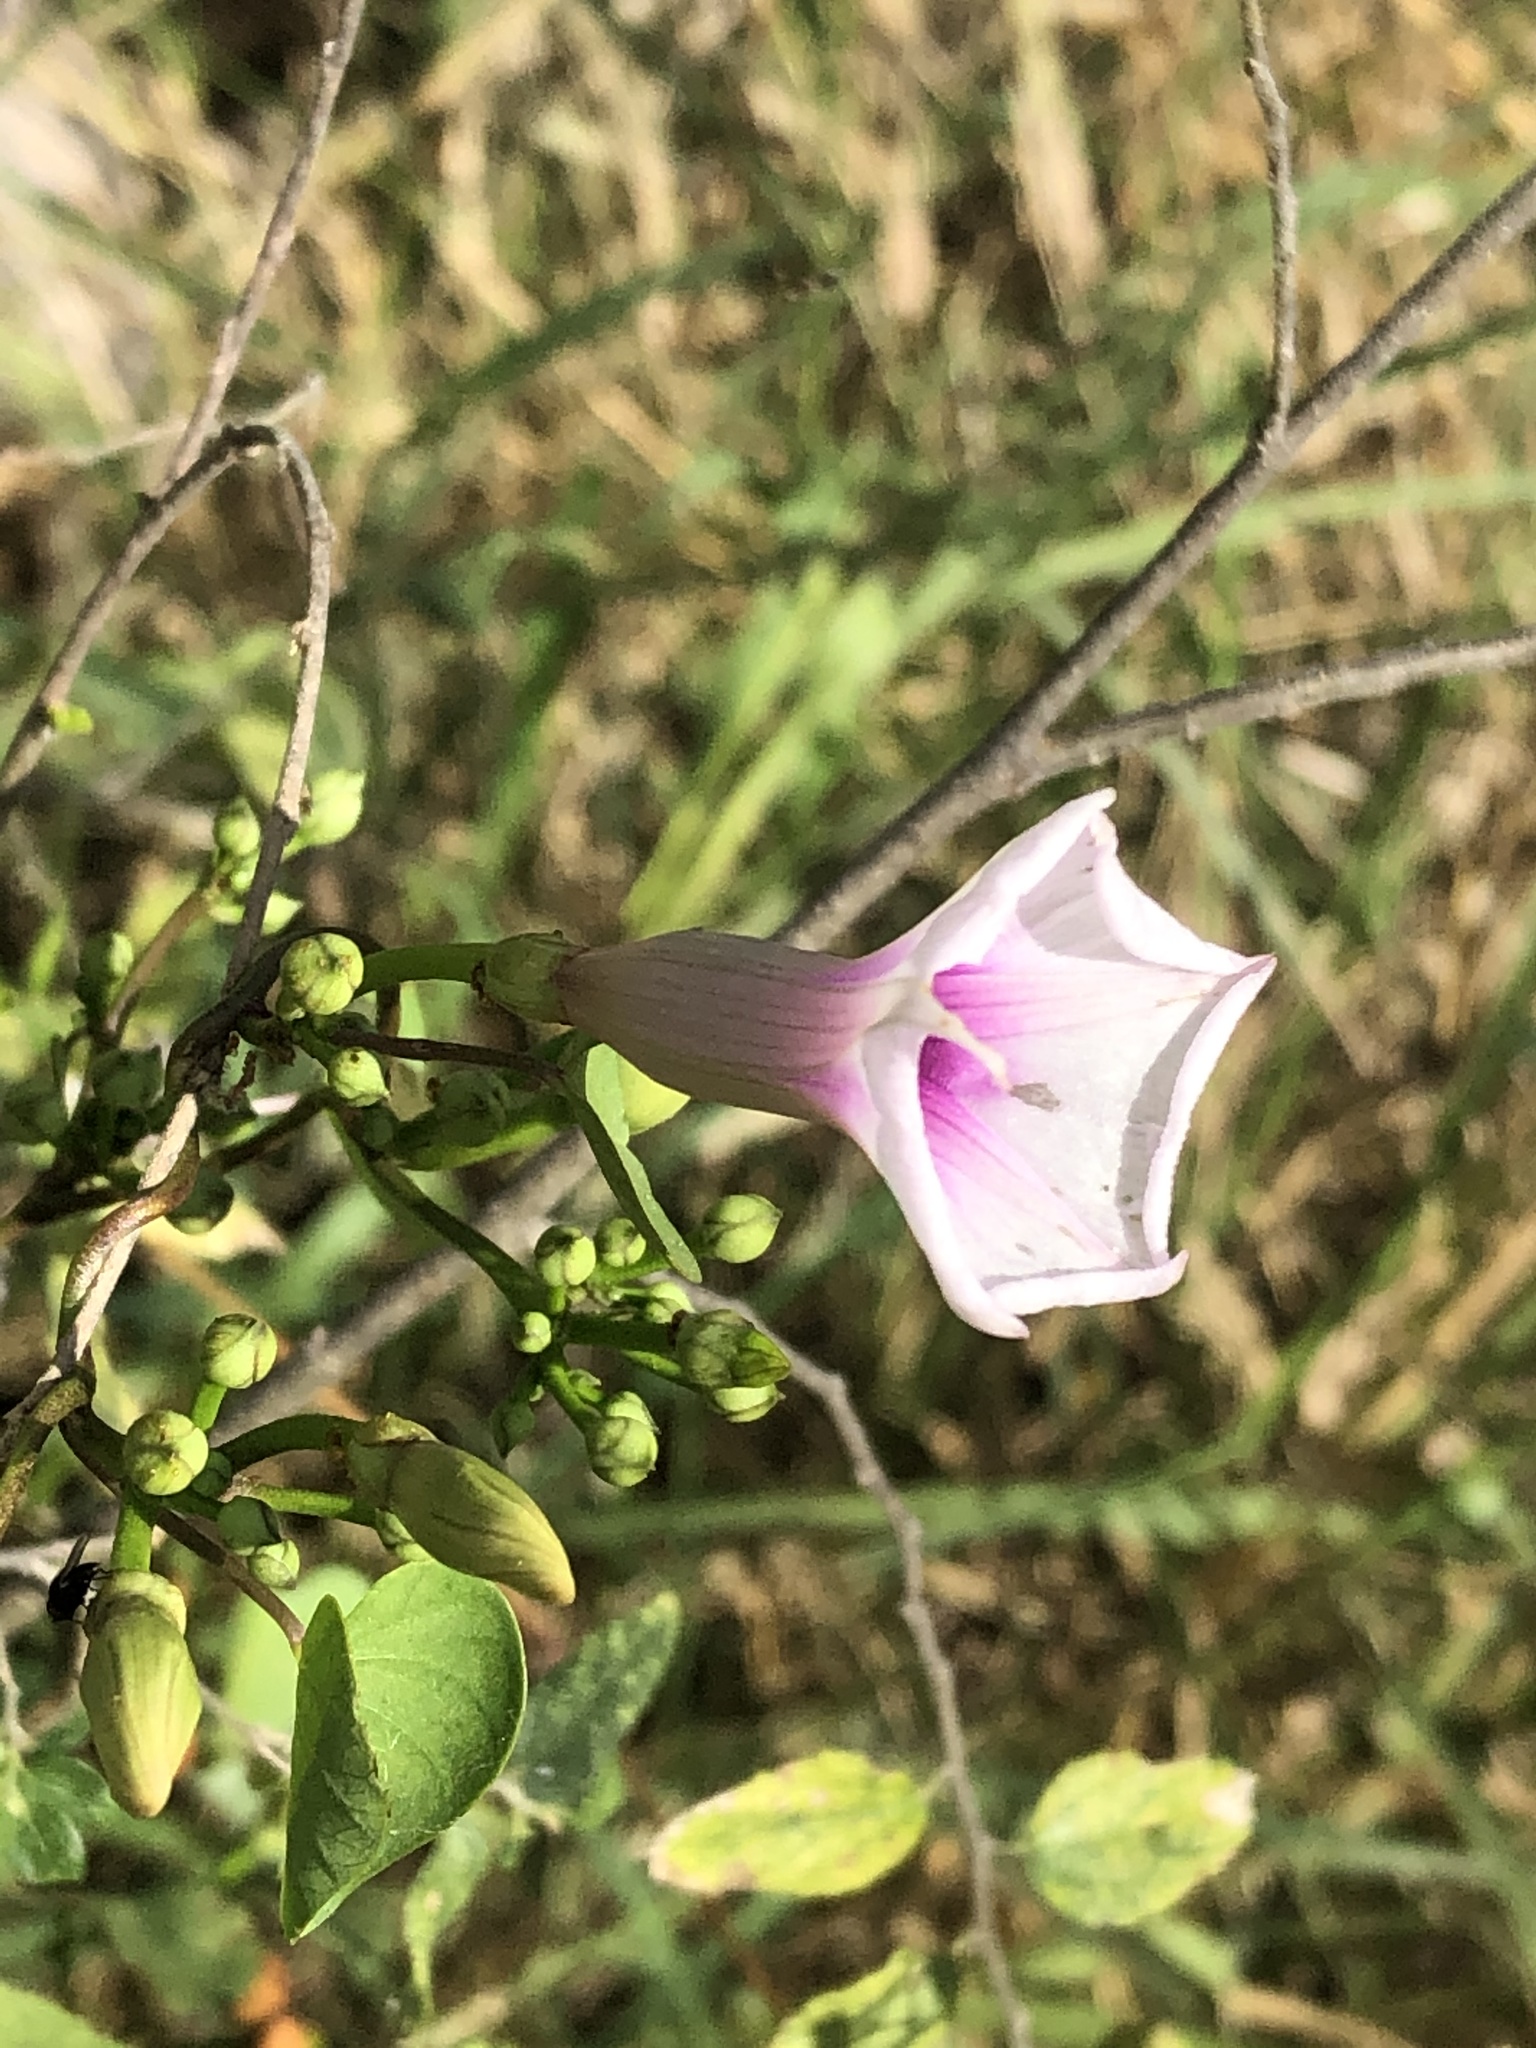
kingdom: Plantae
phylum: Tracheophyta
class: Magnoliopsida
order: Solanales
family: Convolvulaceae
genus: Ipomoea
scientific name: Ipomoea amnicola
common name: Redcenter morning-glory
